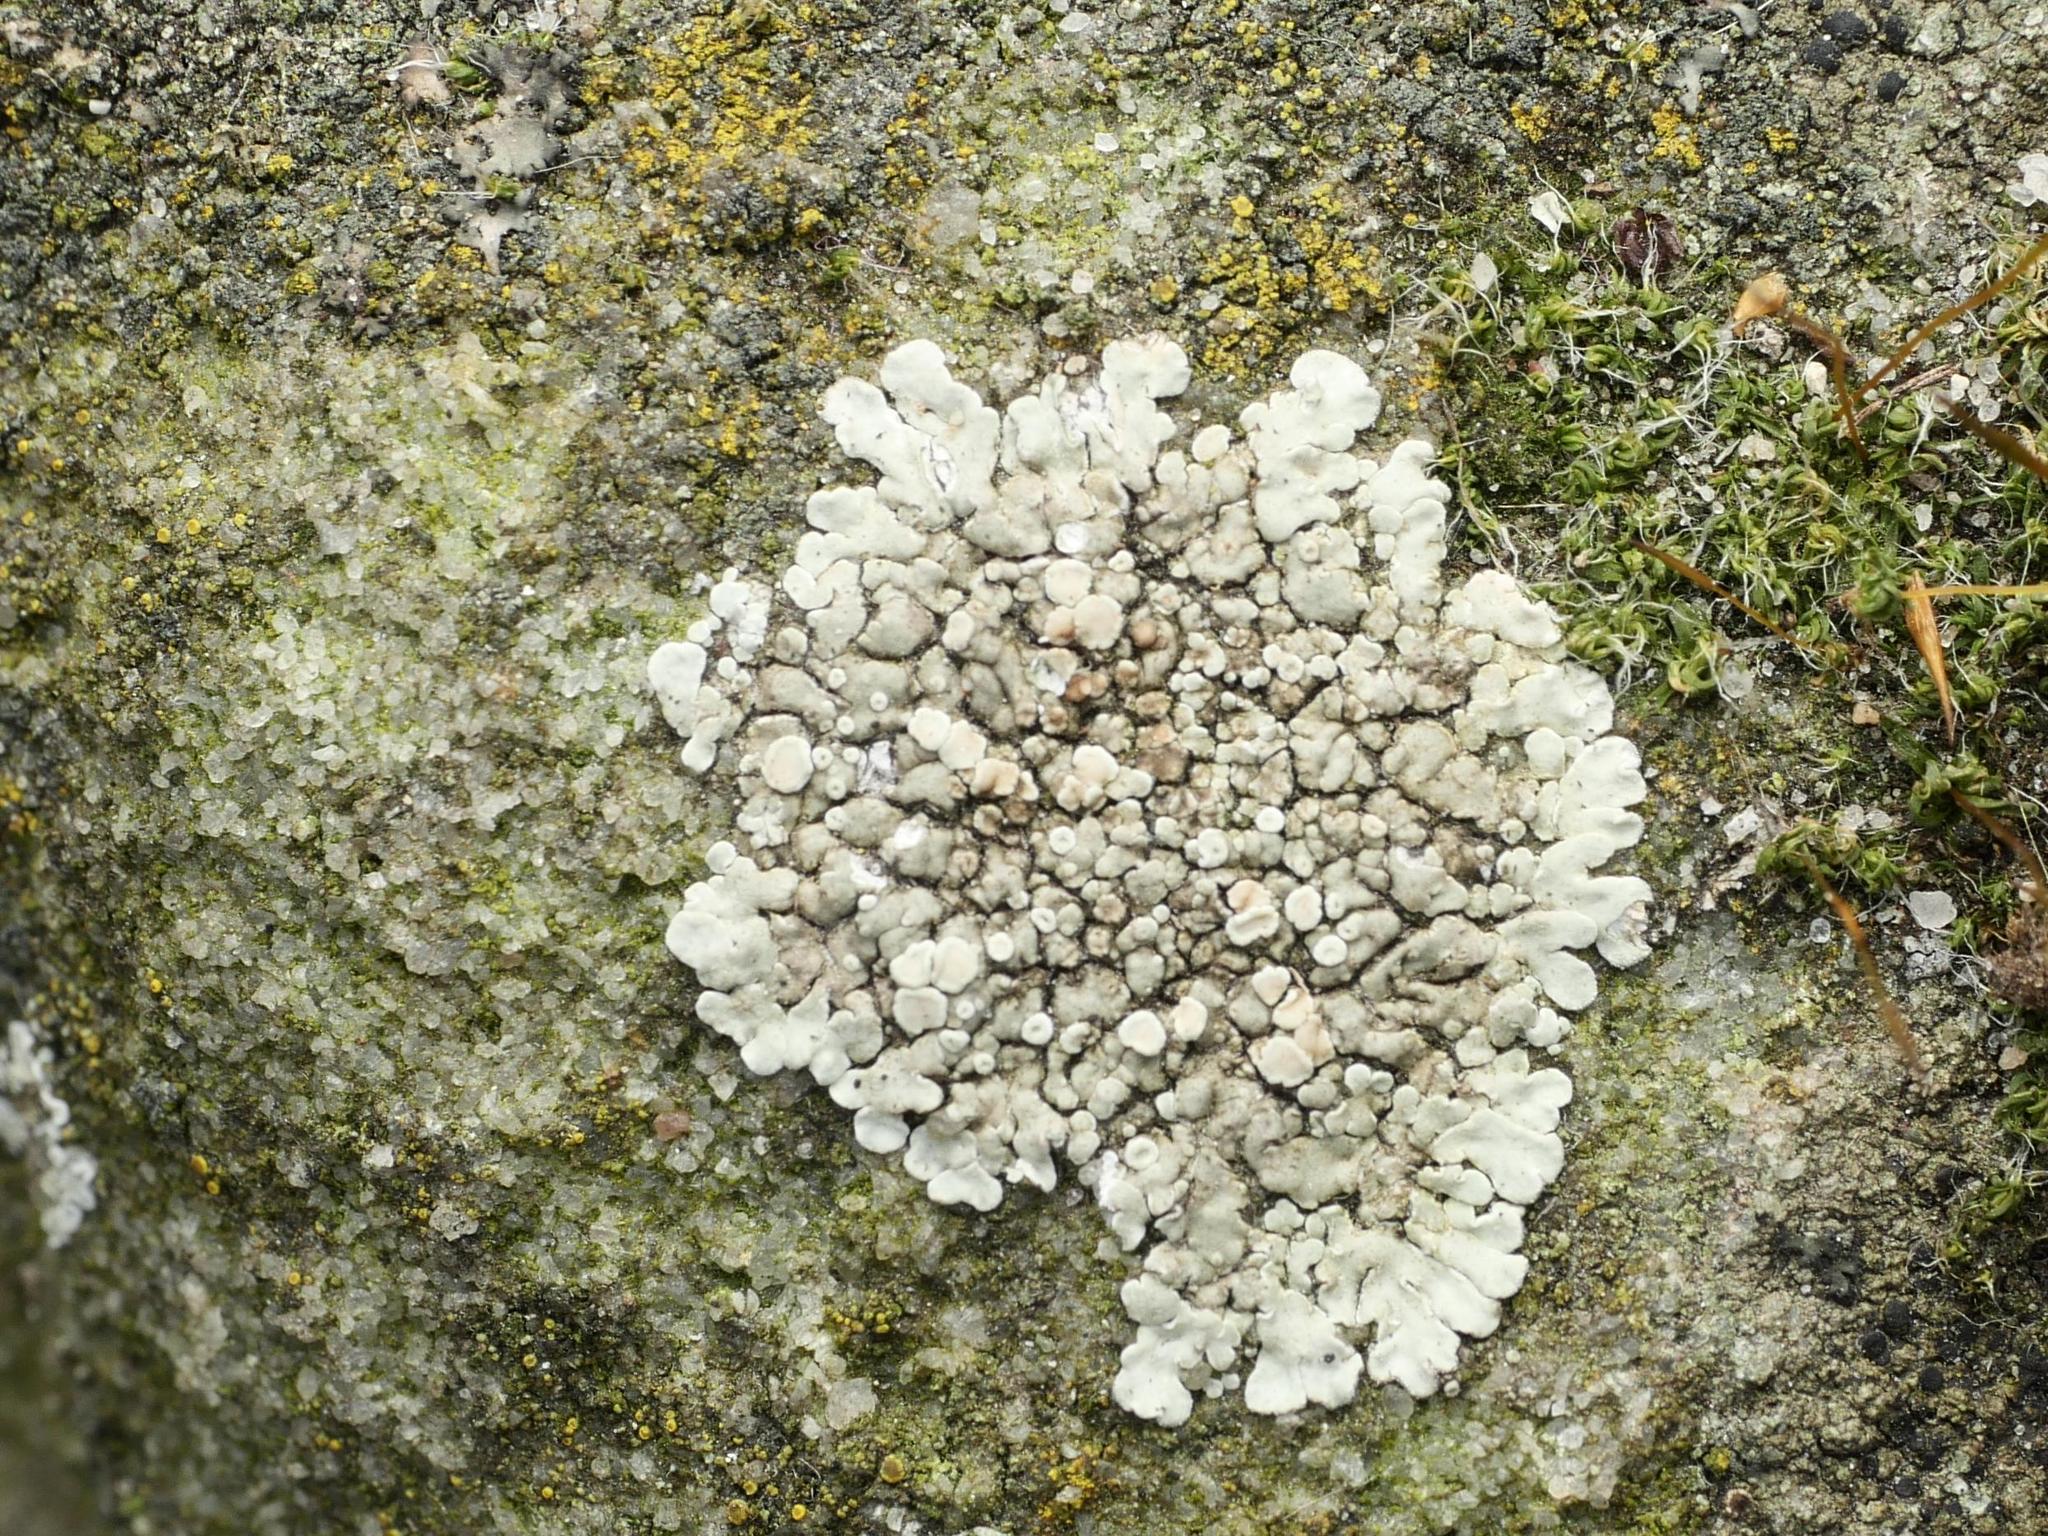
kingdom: Fungi
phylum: Ascomycota
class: Lecanoromycetes
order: Lecanorales
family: Lecanoraceae
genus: Protoparmeliopsis
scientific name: Protoparmeliopsis muralis
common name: Stonewall rim lichen
